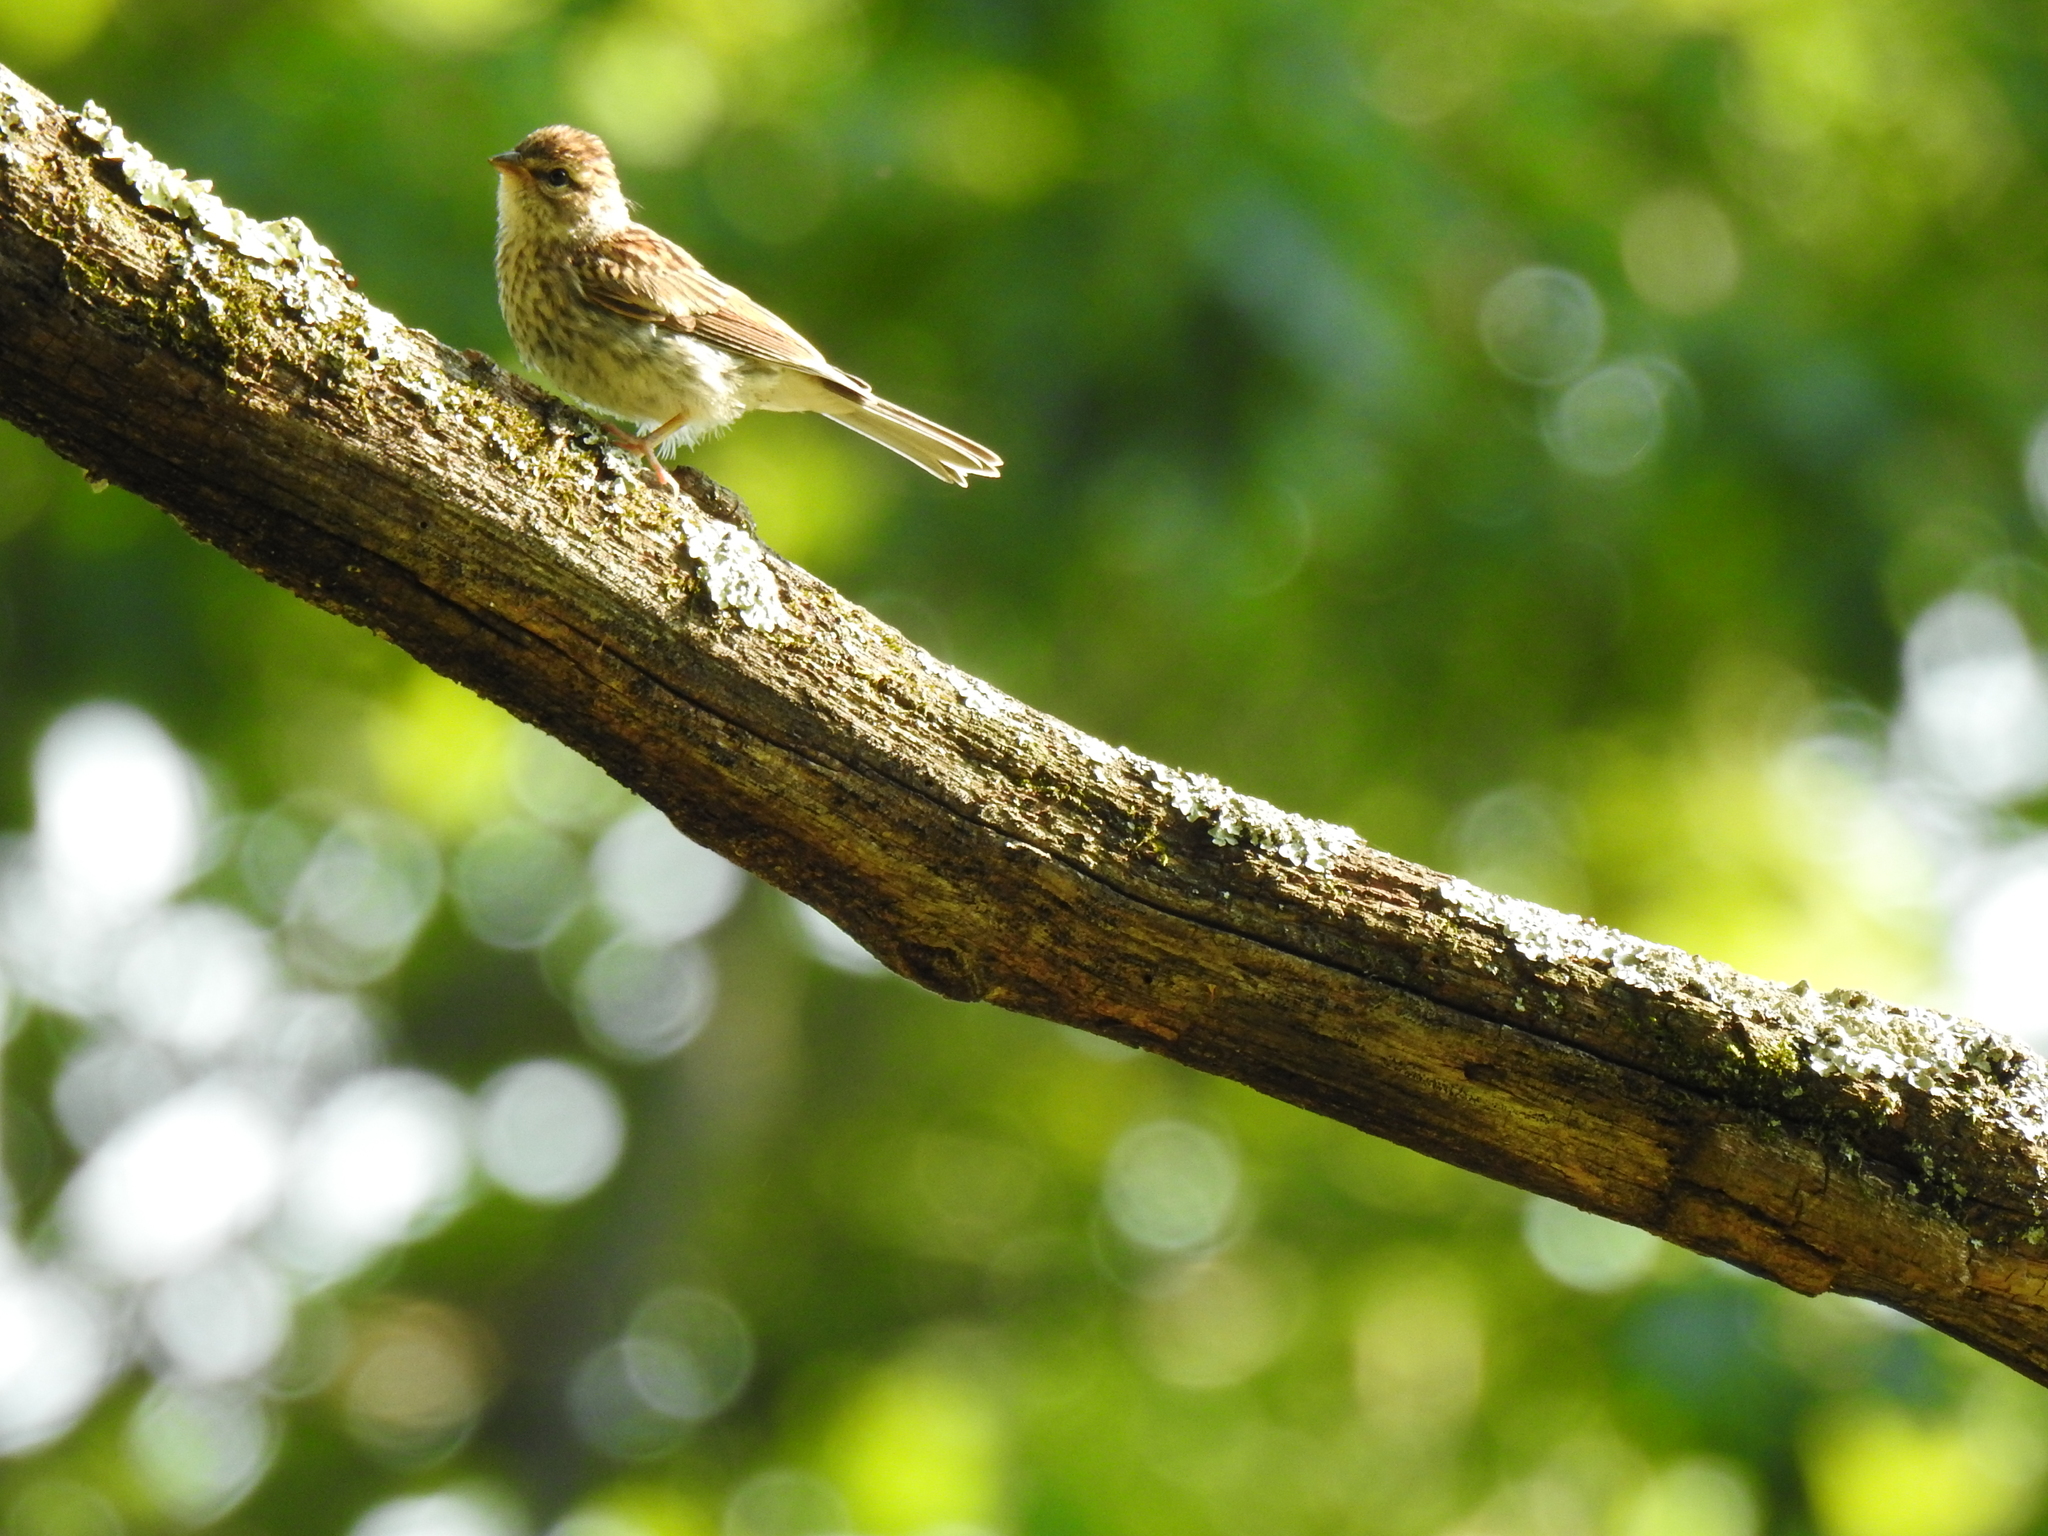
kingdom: Animalia
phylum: Chordata
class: Aves
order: Passeriformes
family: Passerellidae
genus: Spizella
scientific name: Spizella passerina
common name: Chipping sparrow
